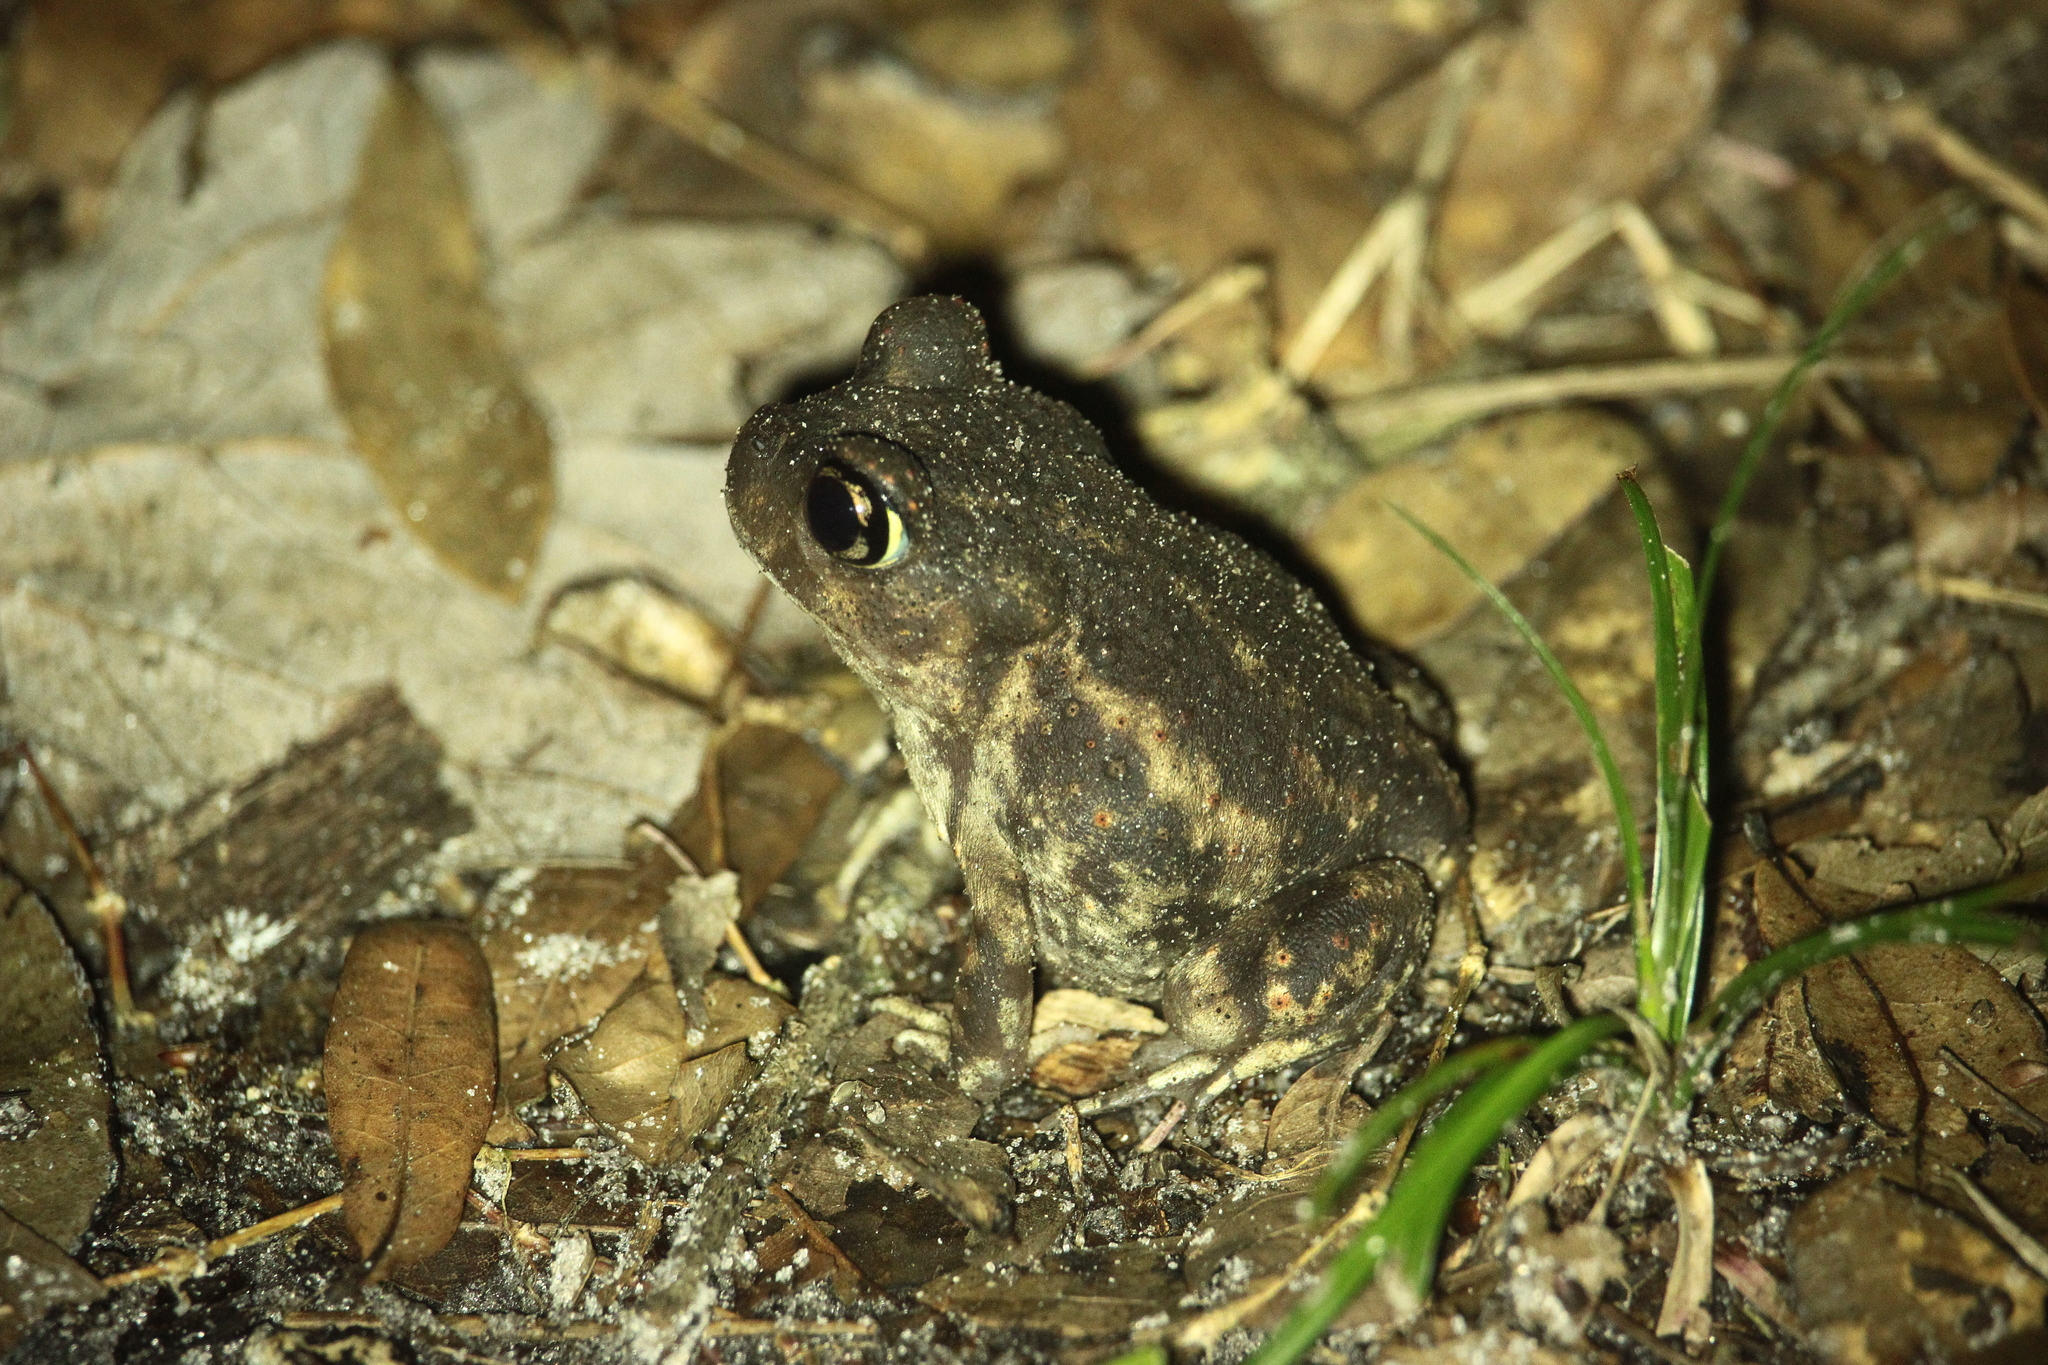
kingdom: Animalia
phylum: Chordata
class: Amphibia
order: Anura
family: Scaphiopodidae
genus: Scaphiopus
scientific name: Scaphiopus holbrookii
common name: Eastern spadefoot toad
